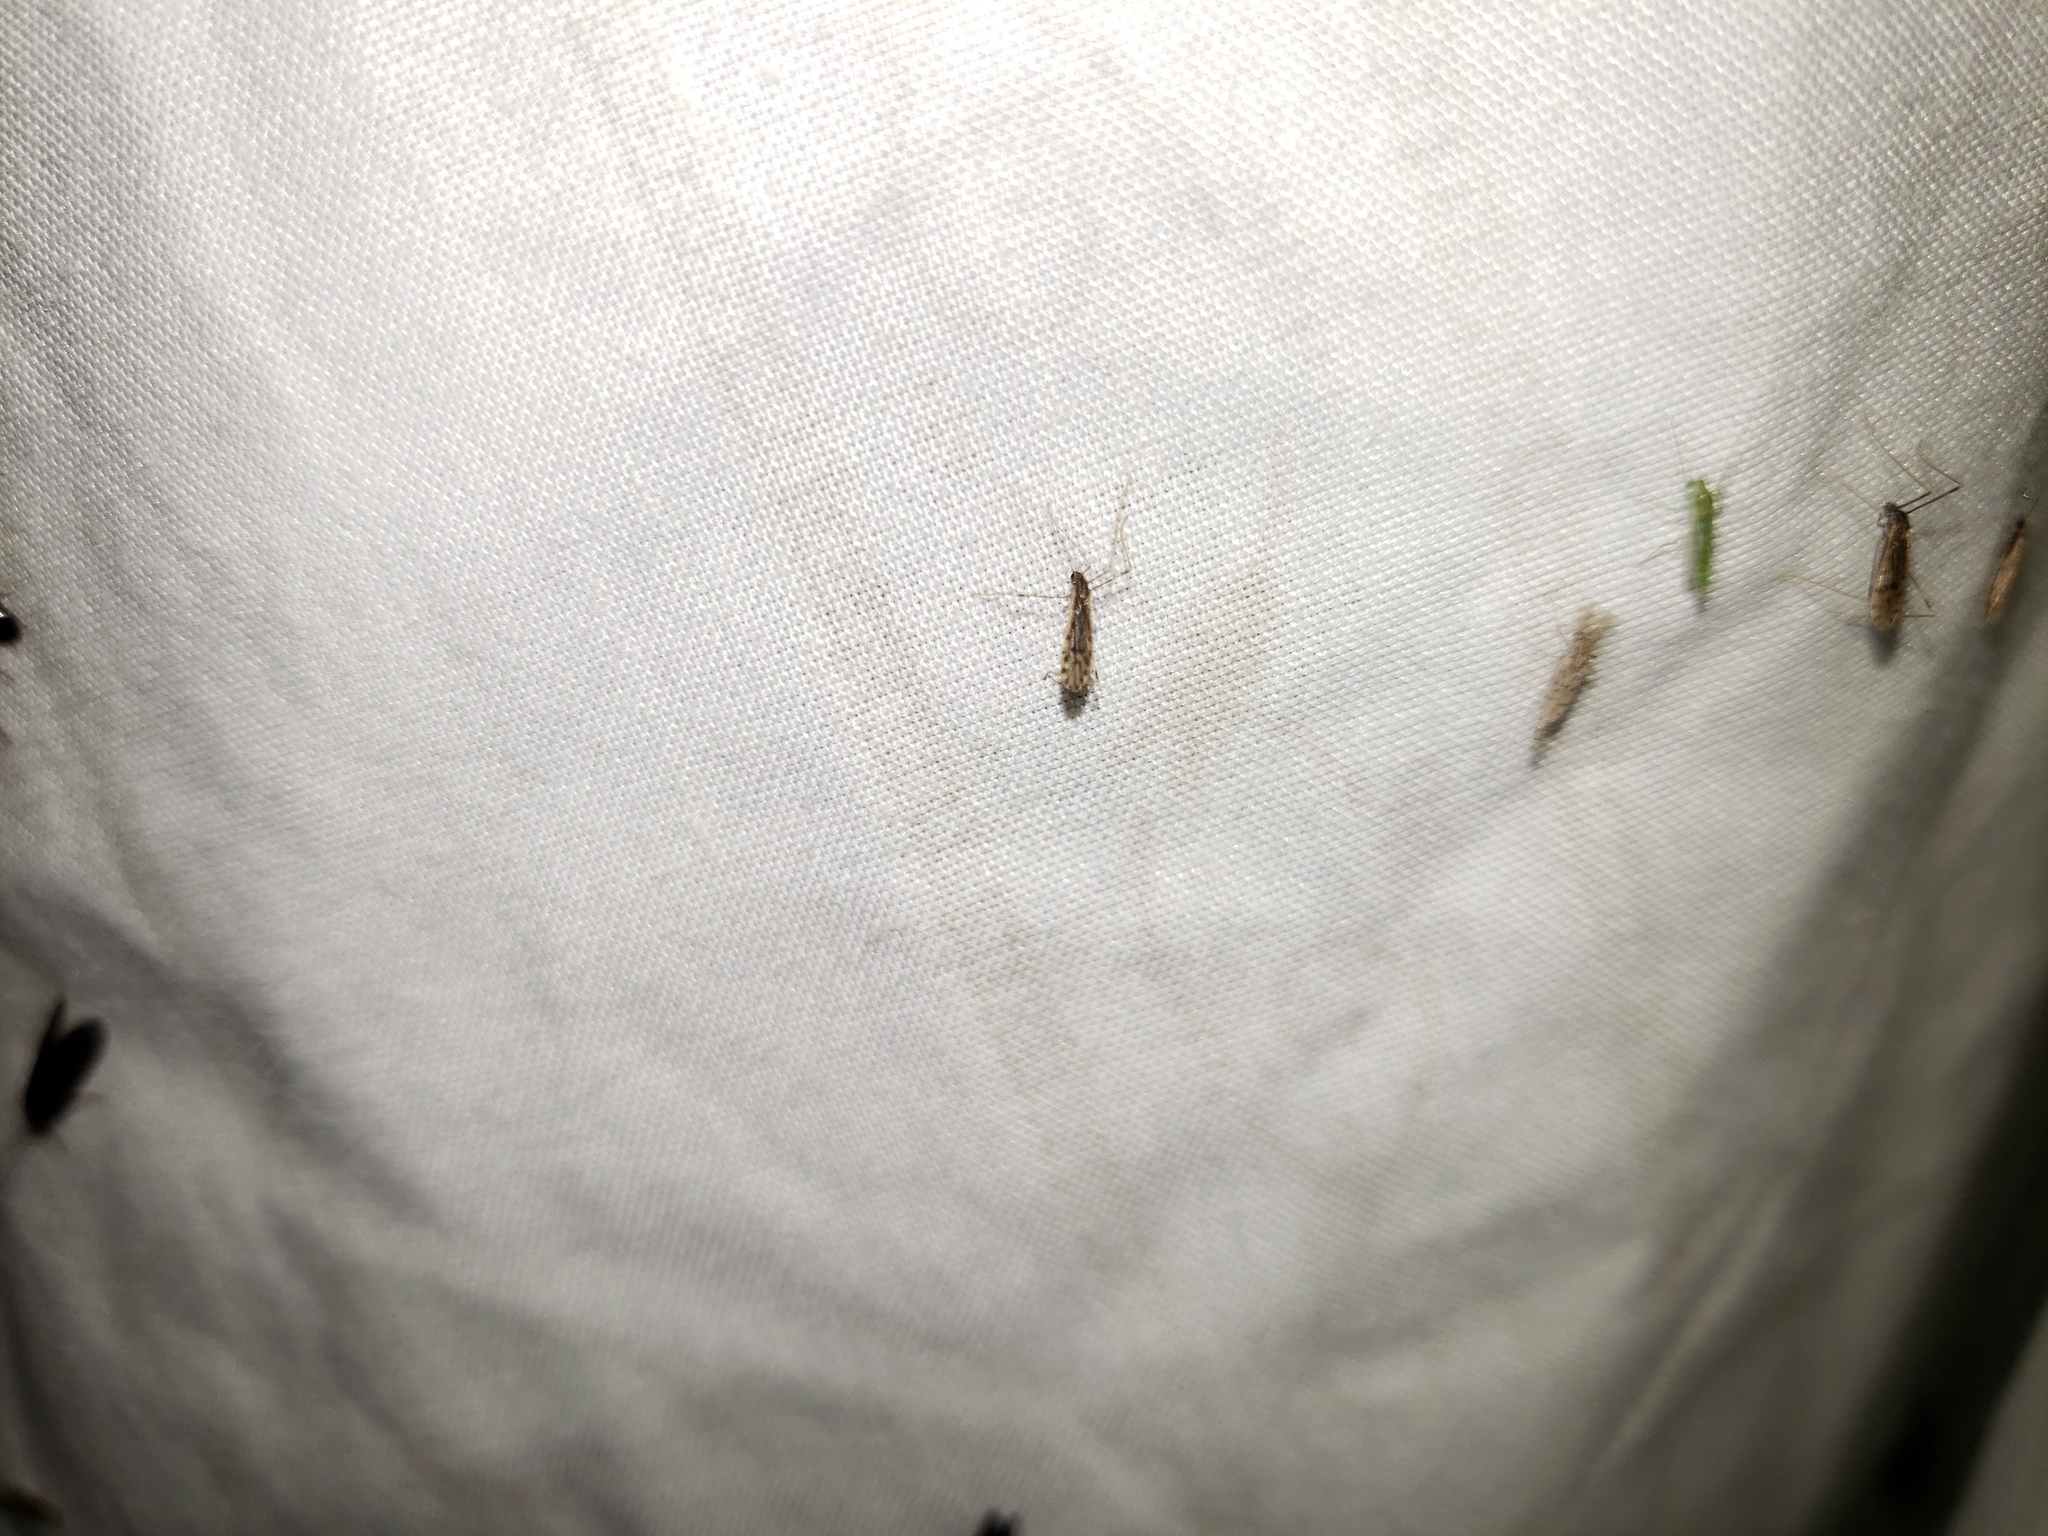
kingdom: Animalia
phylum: Arthropoda
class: Insecta
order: Diptera
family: Limoniidae
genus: Erioptera
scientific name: Erioptera parva
